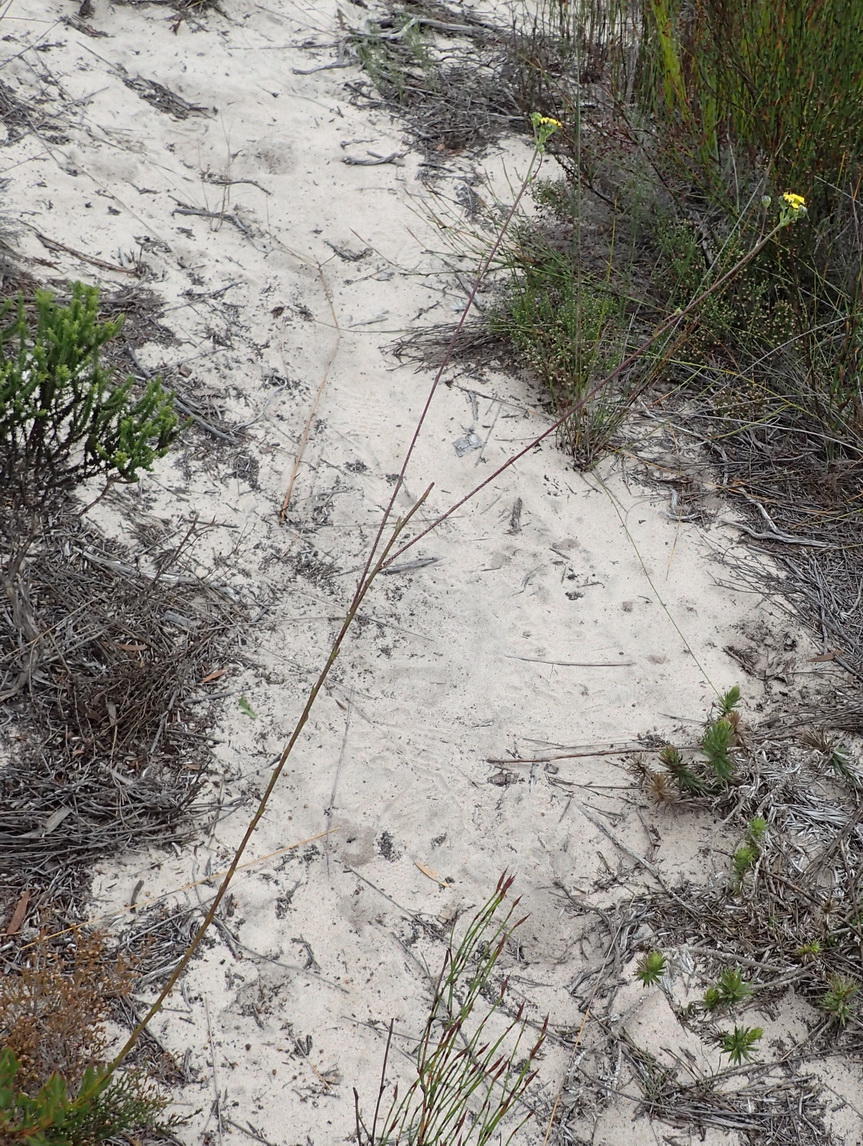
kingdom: Plantae
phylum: Tracheophyta
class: Magnoliopsida
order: Asterales
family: Asteraceae
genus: Othonna
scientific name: Othonna quinquedentata
